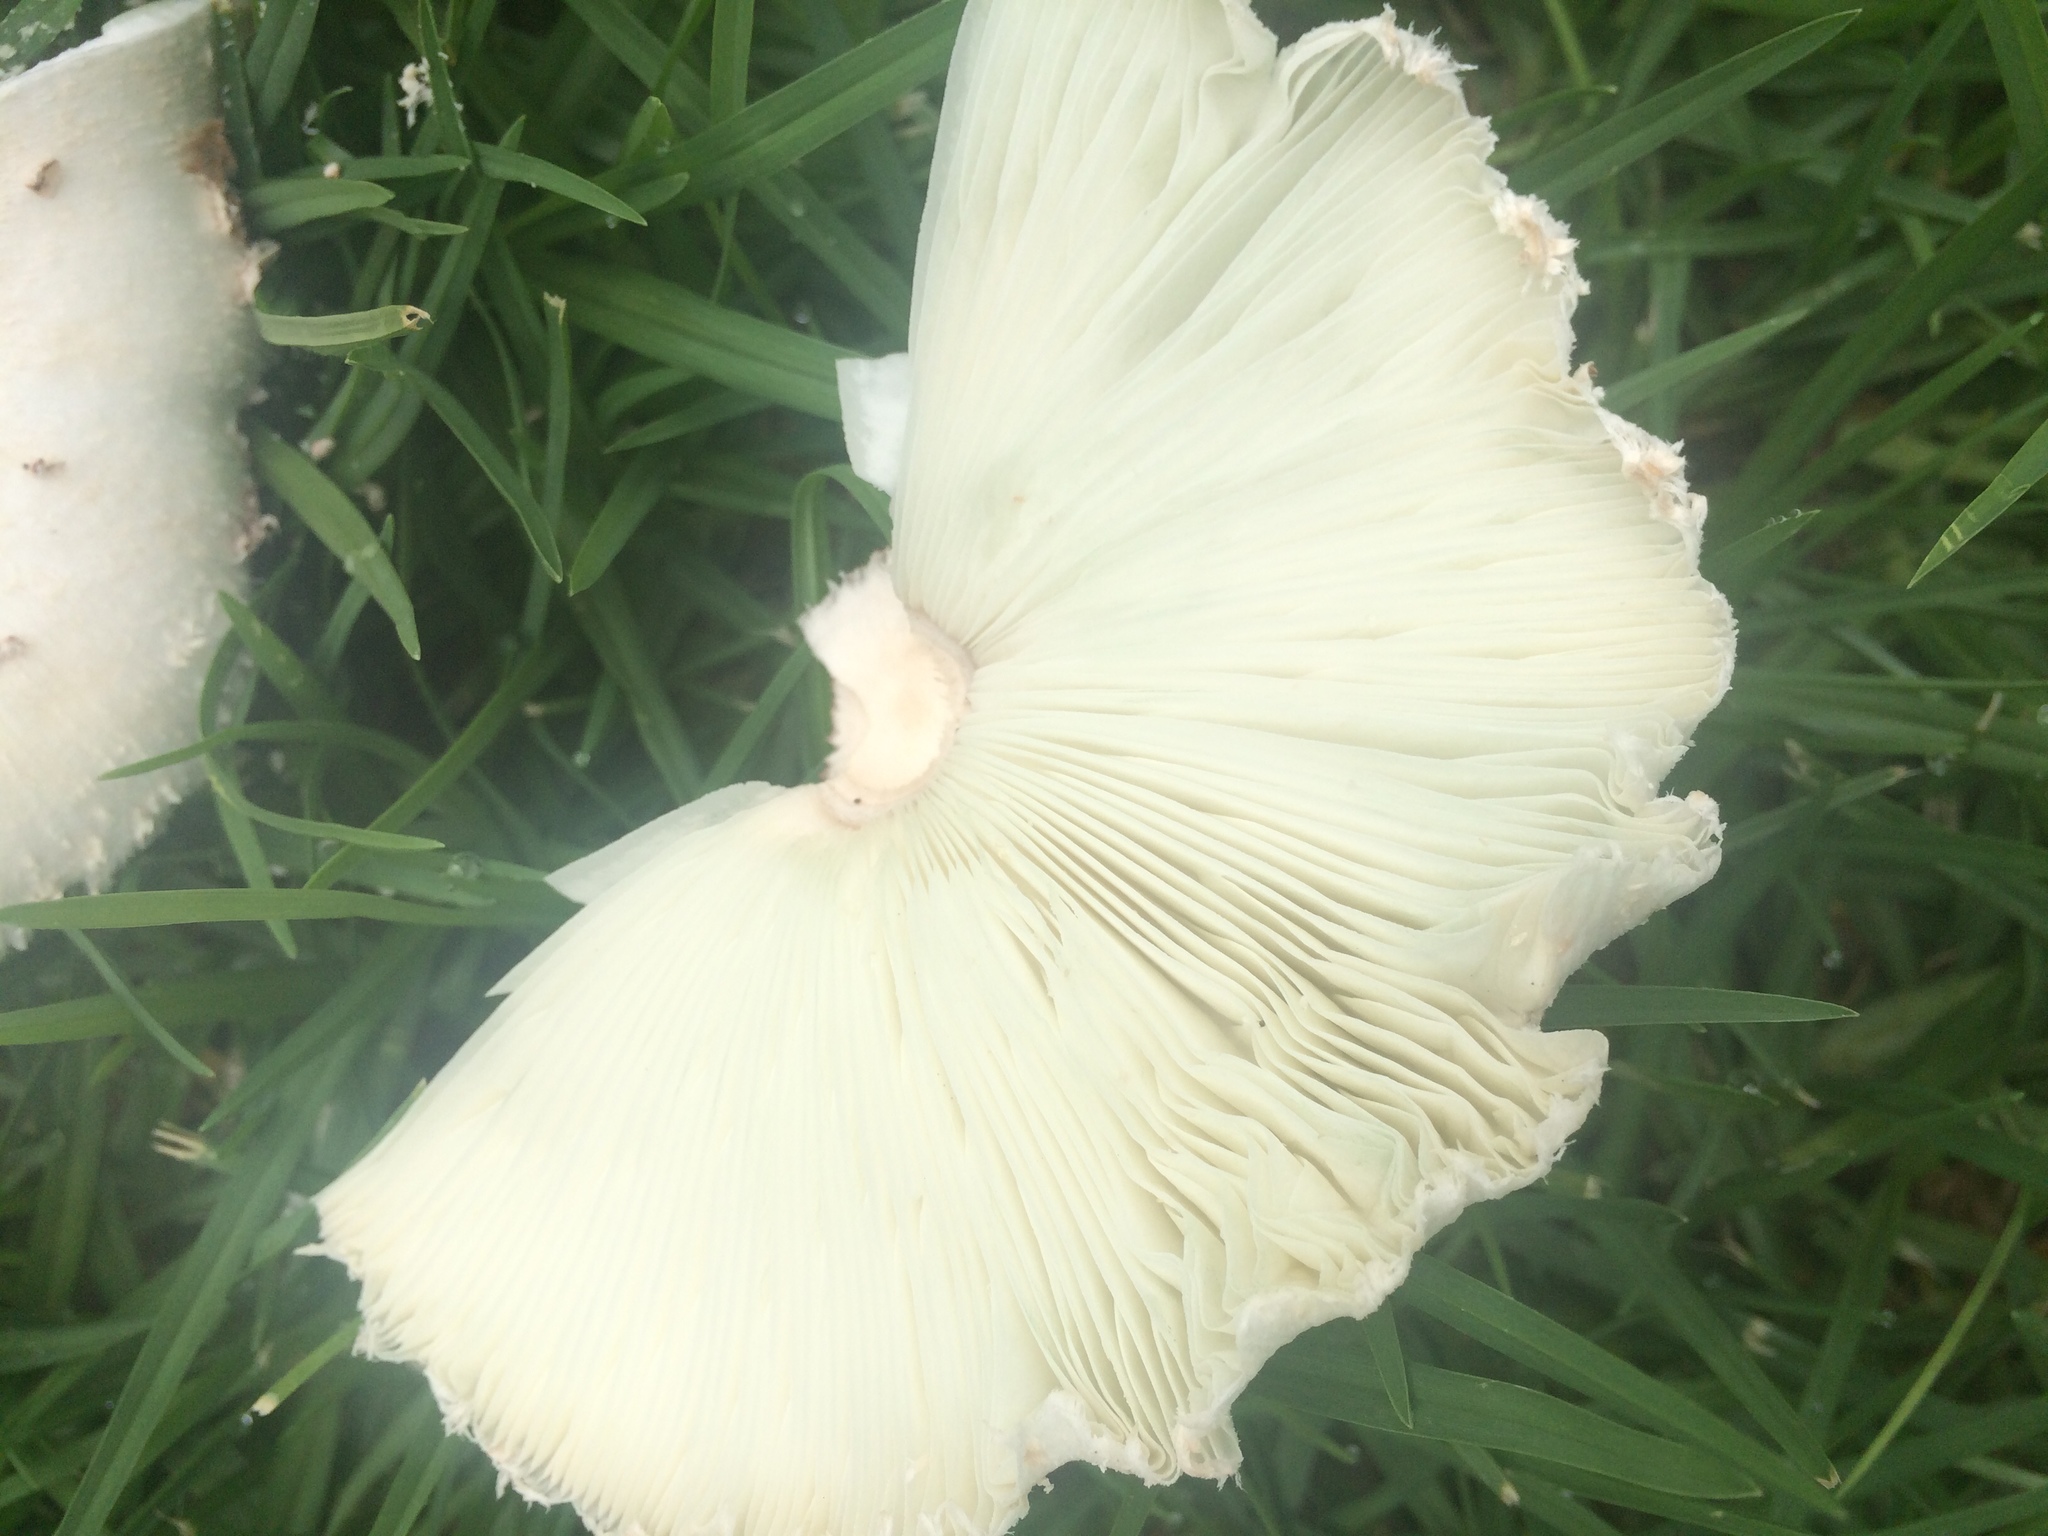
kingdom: Fungi
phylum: Basidiomycota
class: Agaricomycetes
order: Agaricales
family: Agaricaceae
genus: Chlorophyllum
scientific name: Chlorophyllum molybdites
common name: False parasol
